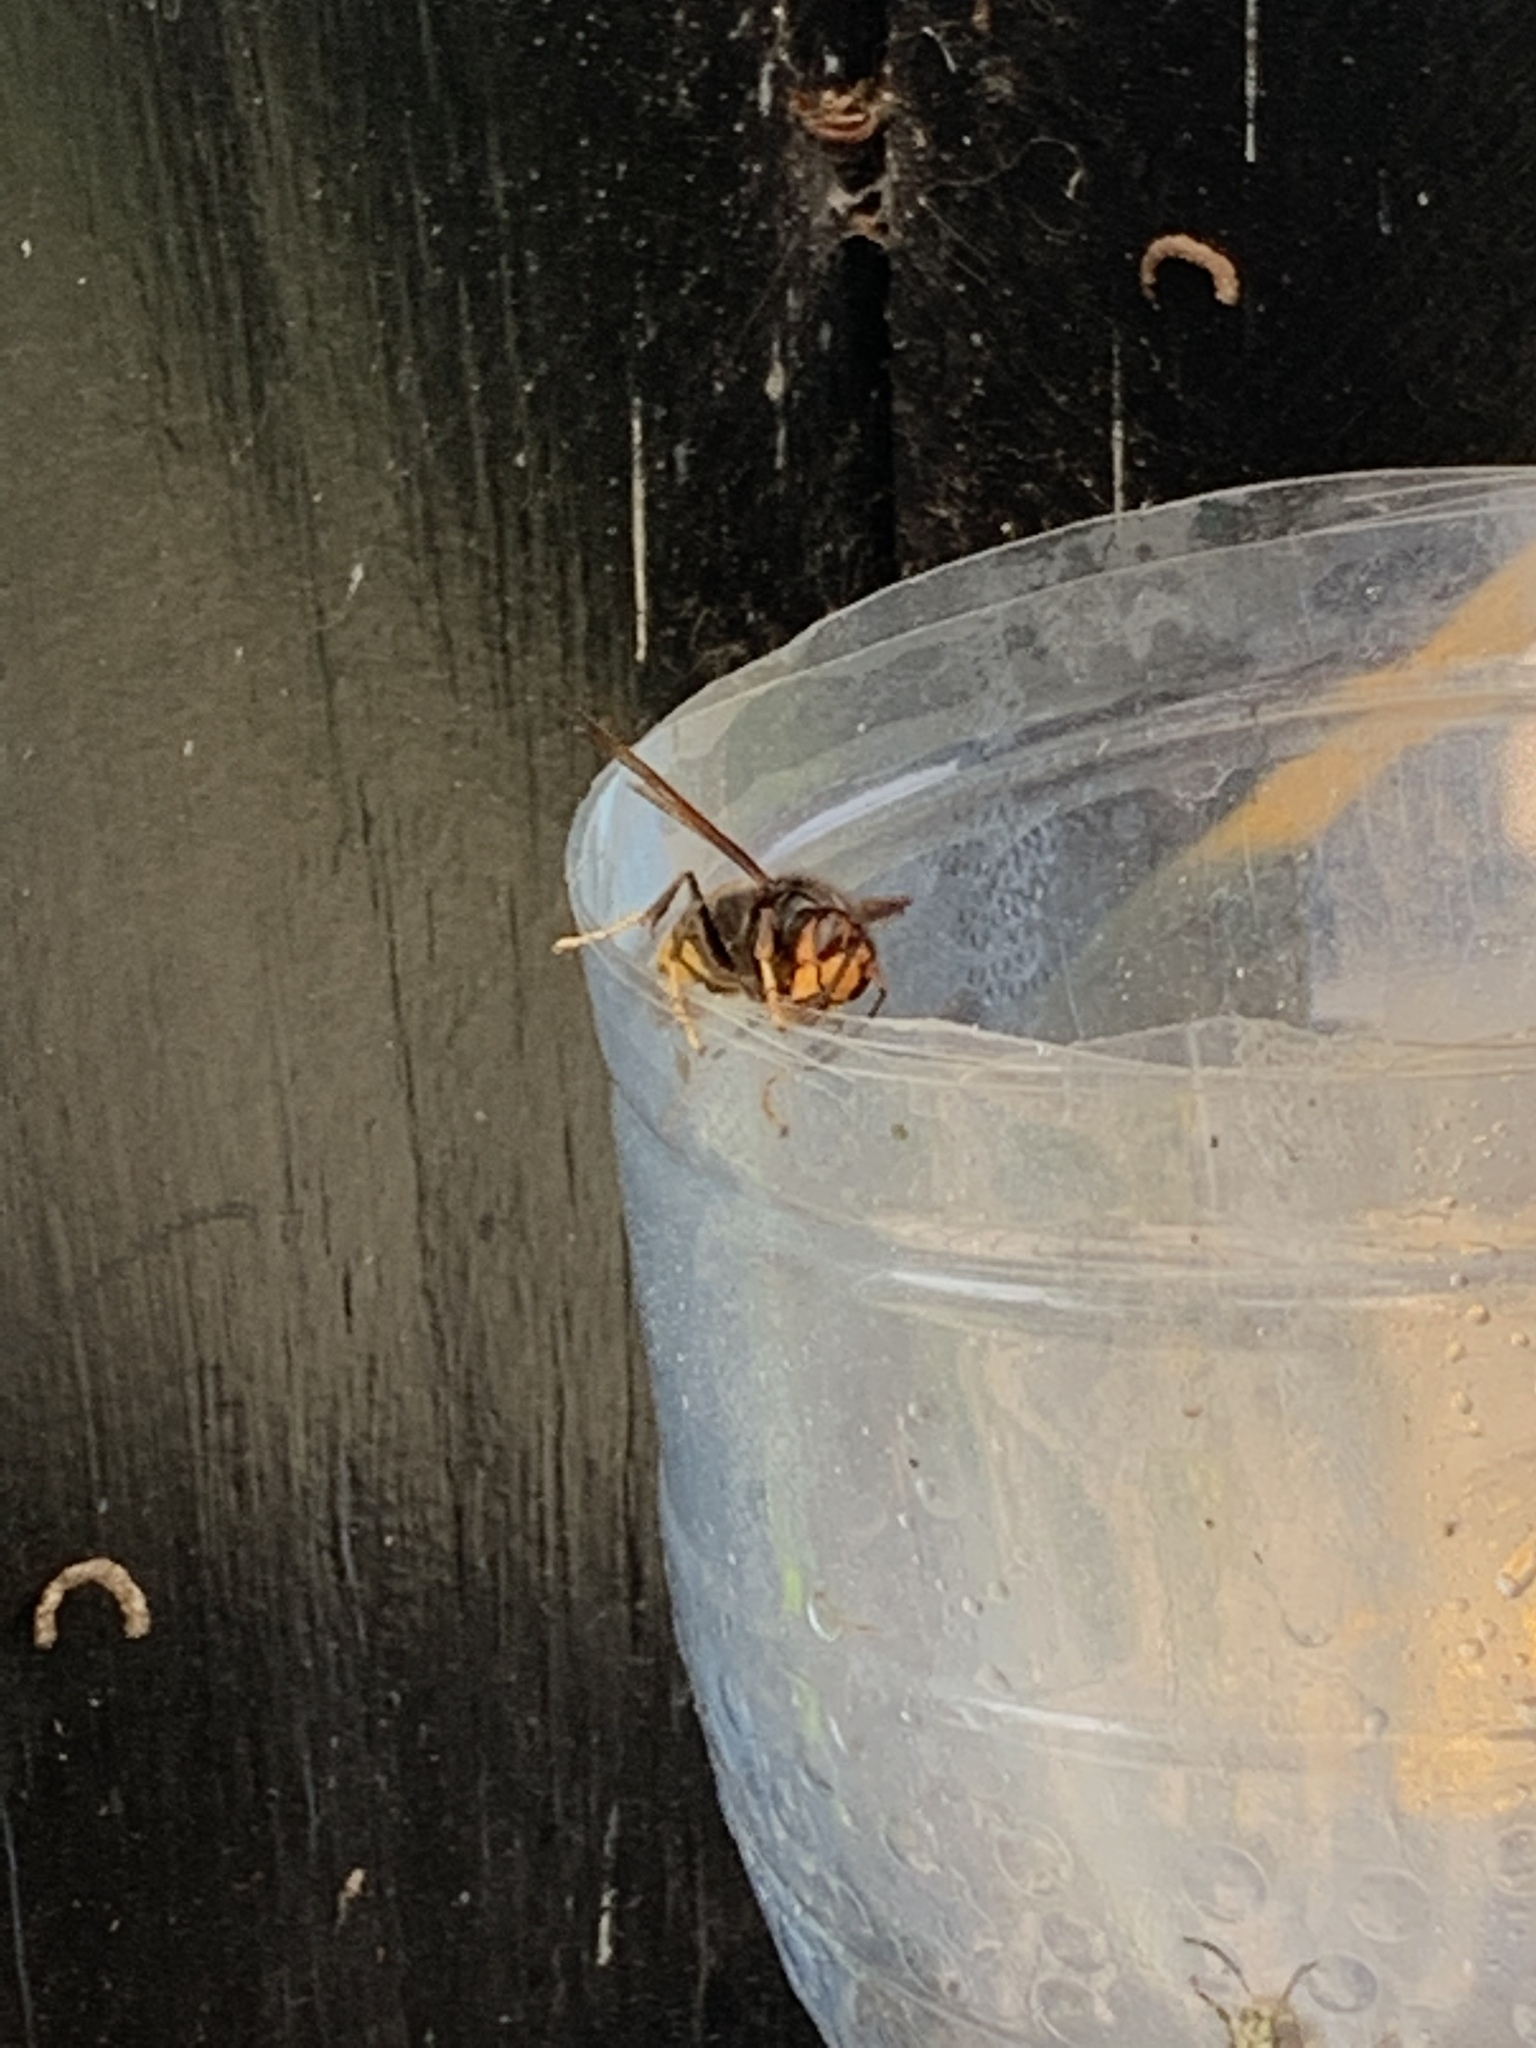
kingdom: Animalia
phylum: Arthropoda
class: Insecta
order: Hymenoptera
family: Vespidae
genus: Vespa
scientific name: Vespa velutina
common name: Asian hornet
